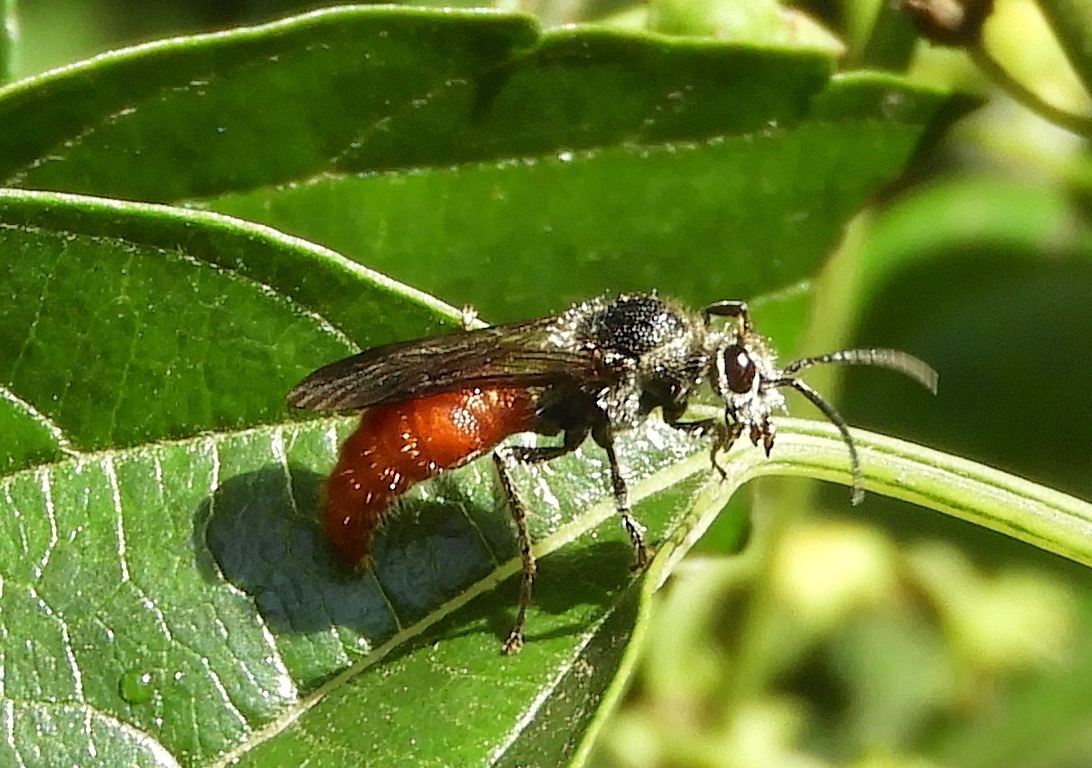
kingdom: Animalia
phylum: Arthropoda
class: Insecta
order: Hymenoptera
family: Mutillidae
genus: Timulla
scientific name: Timulla
